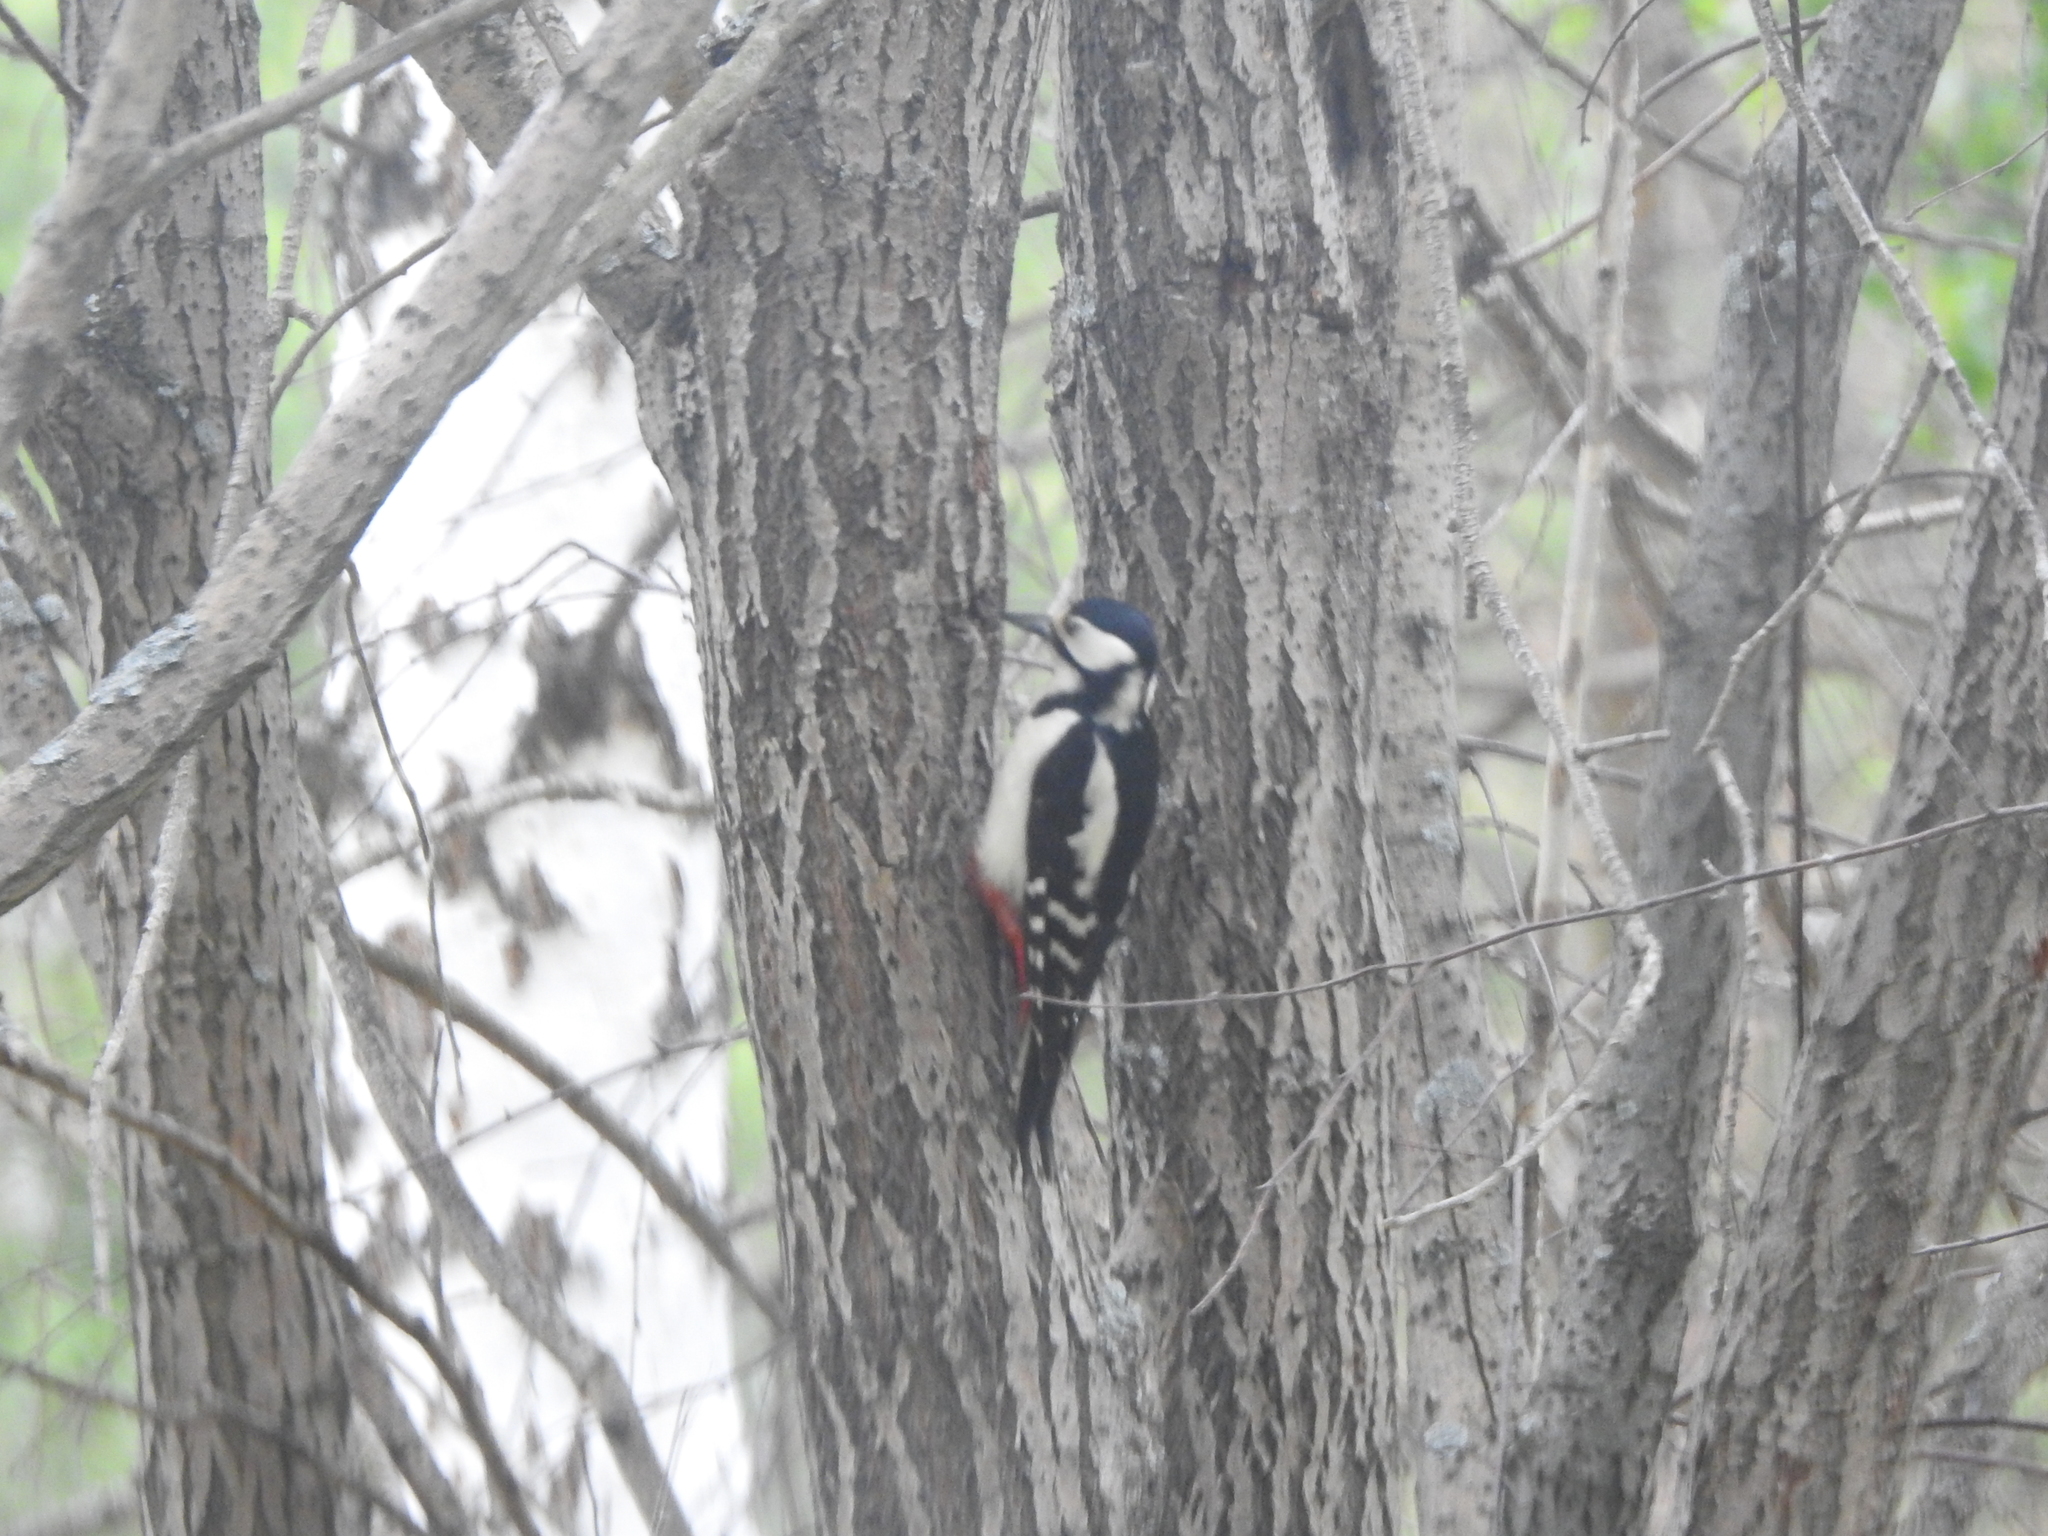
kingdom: Animalia
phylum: Chordata
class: Aves
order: Piciformes
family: Picidae
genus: Dendrocopos
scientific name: Dendrocopos major
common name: Great spotted woodpecker
